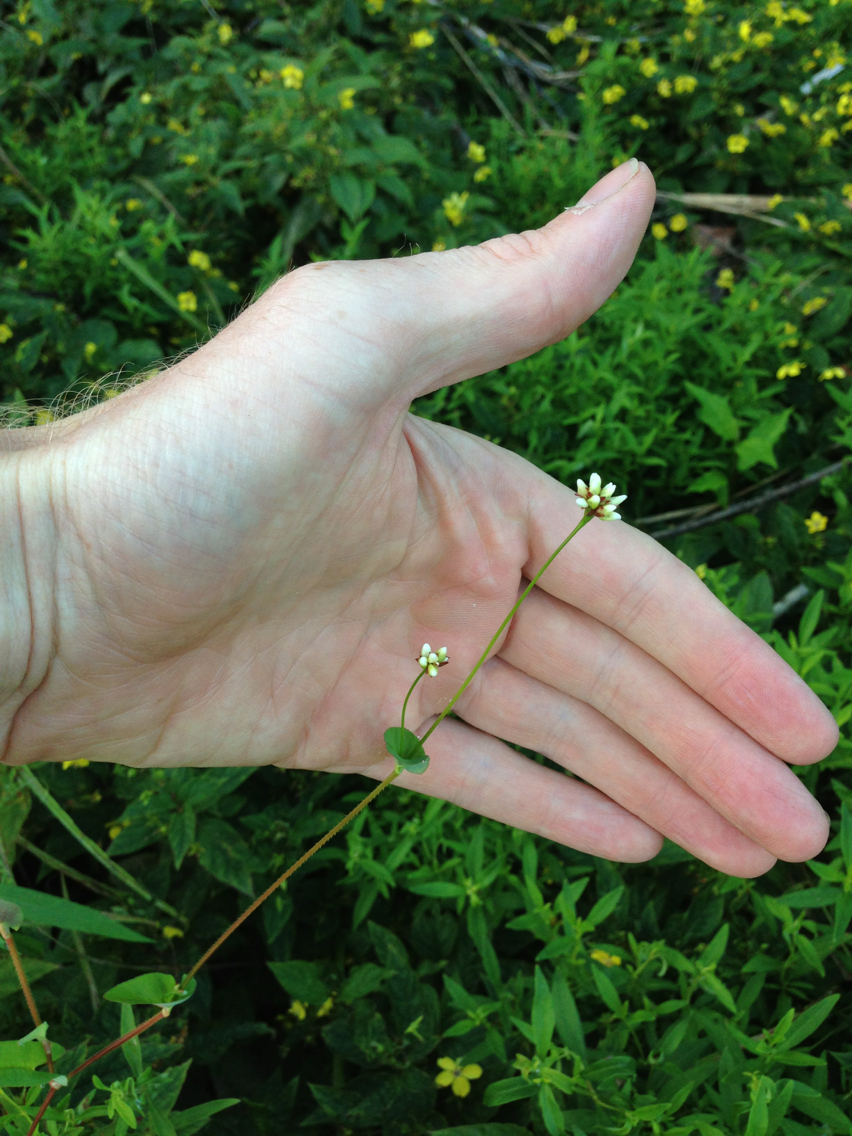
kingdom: Plantae
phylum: Tracheophyta
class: Magnoliopsida
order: Caryophyllales
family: Polygonaceae
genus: Persicaria
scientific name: Persicaria sagittata
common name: American tearthumb
